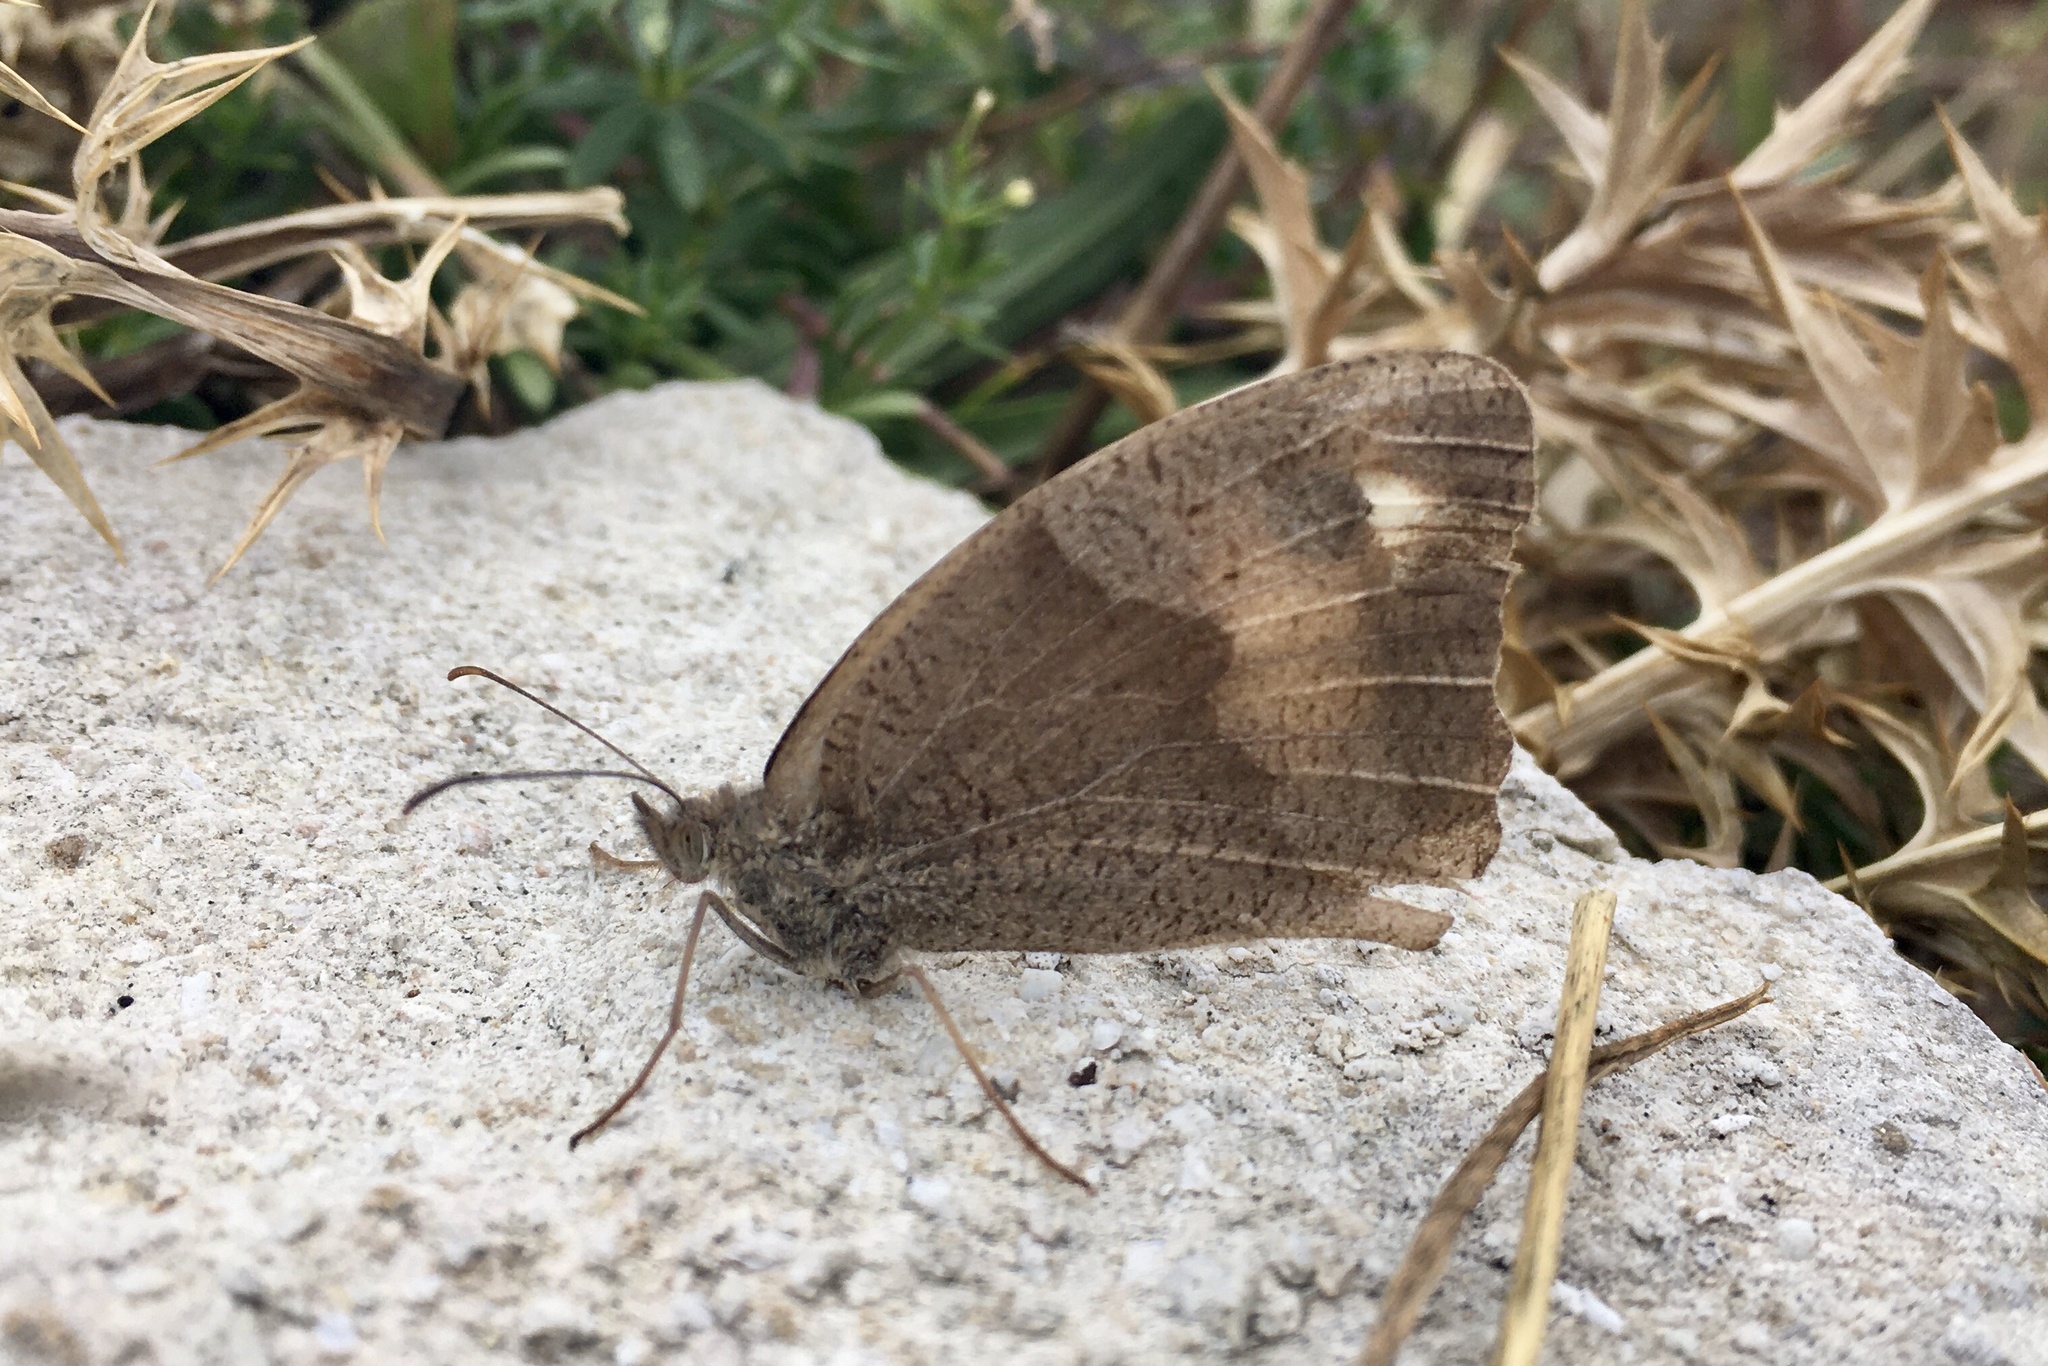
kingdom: Animalia
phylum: Arthropoda
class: Insecta
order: Lepidoptera
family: Nymphalidae
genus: Maniola
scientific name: Maniola jurtina
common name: Meadow brown
